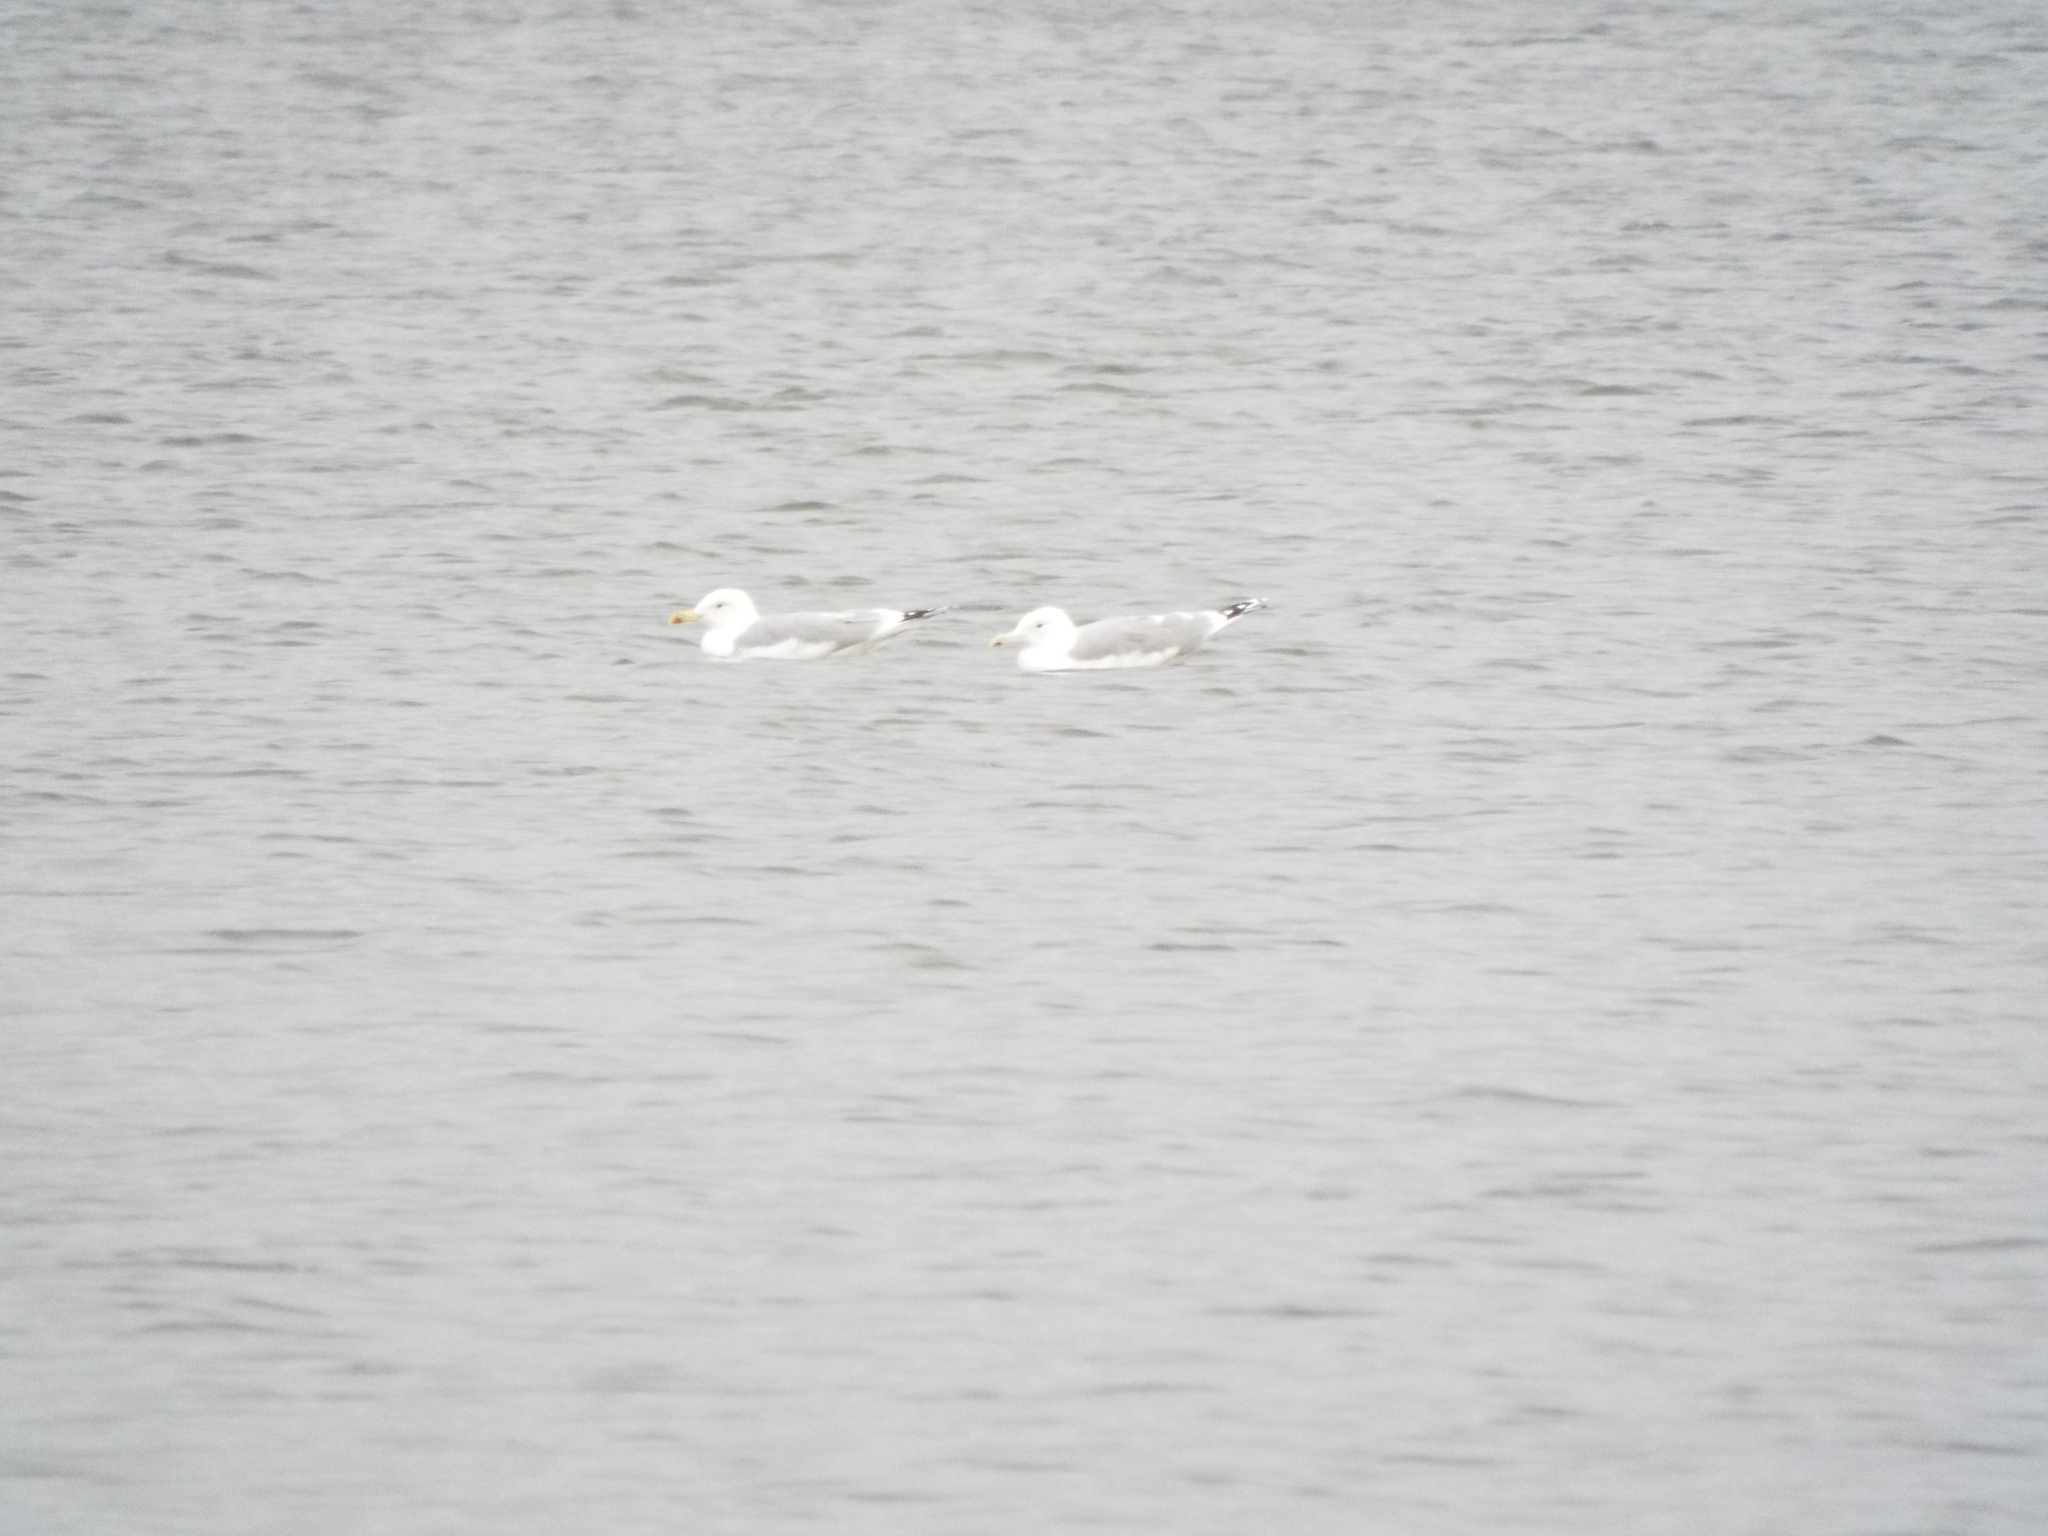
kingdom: Animalia
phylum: Chordata
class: Aves
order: Charadriiformes
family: Laridae
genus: Larus
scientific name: Larus cachinnans
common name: Caspian gull
